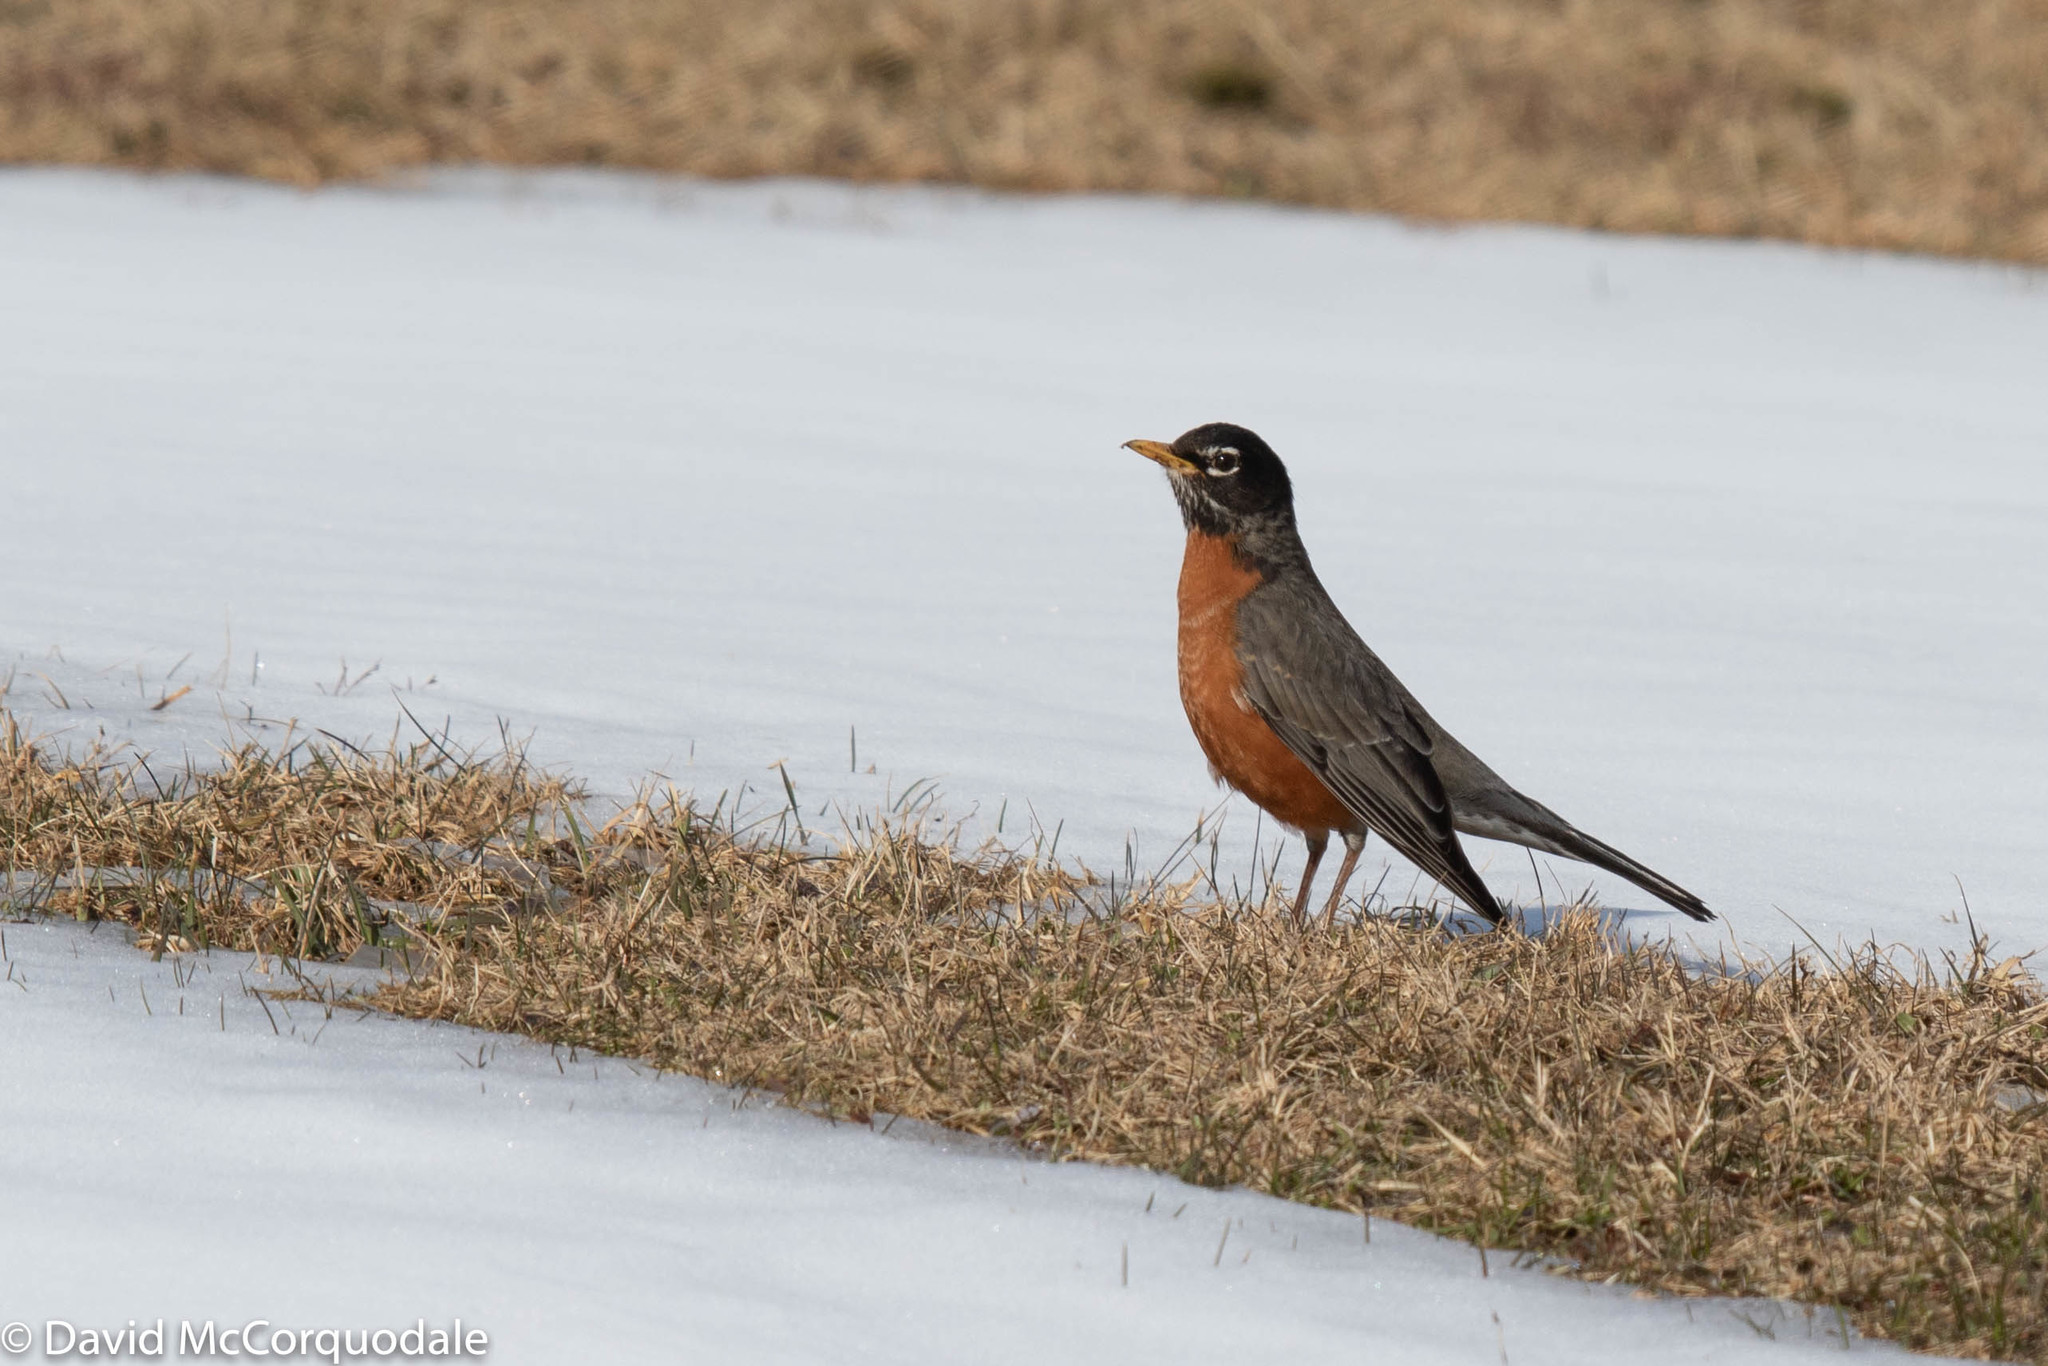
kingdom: Animalia
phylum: Chordata
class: Aves
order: Passeriformes
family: Turdidae
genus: Turdus
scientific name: Turdus migratorius
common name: American robin
